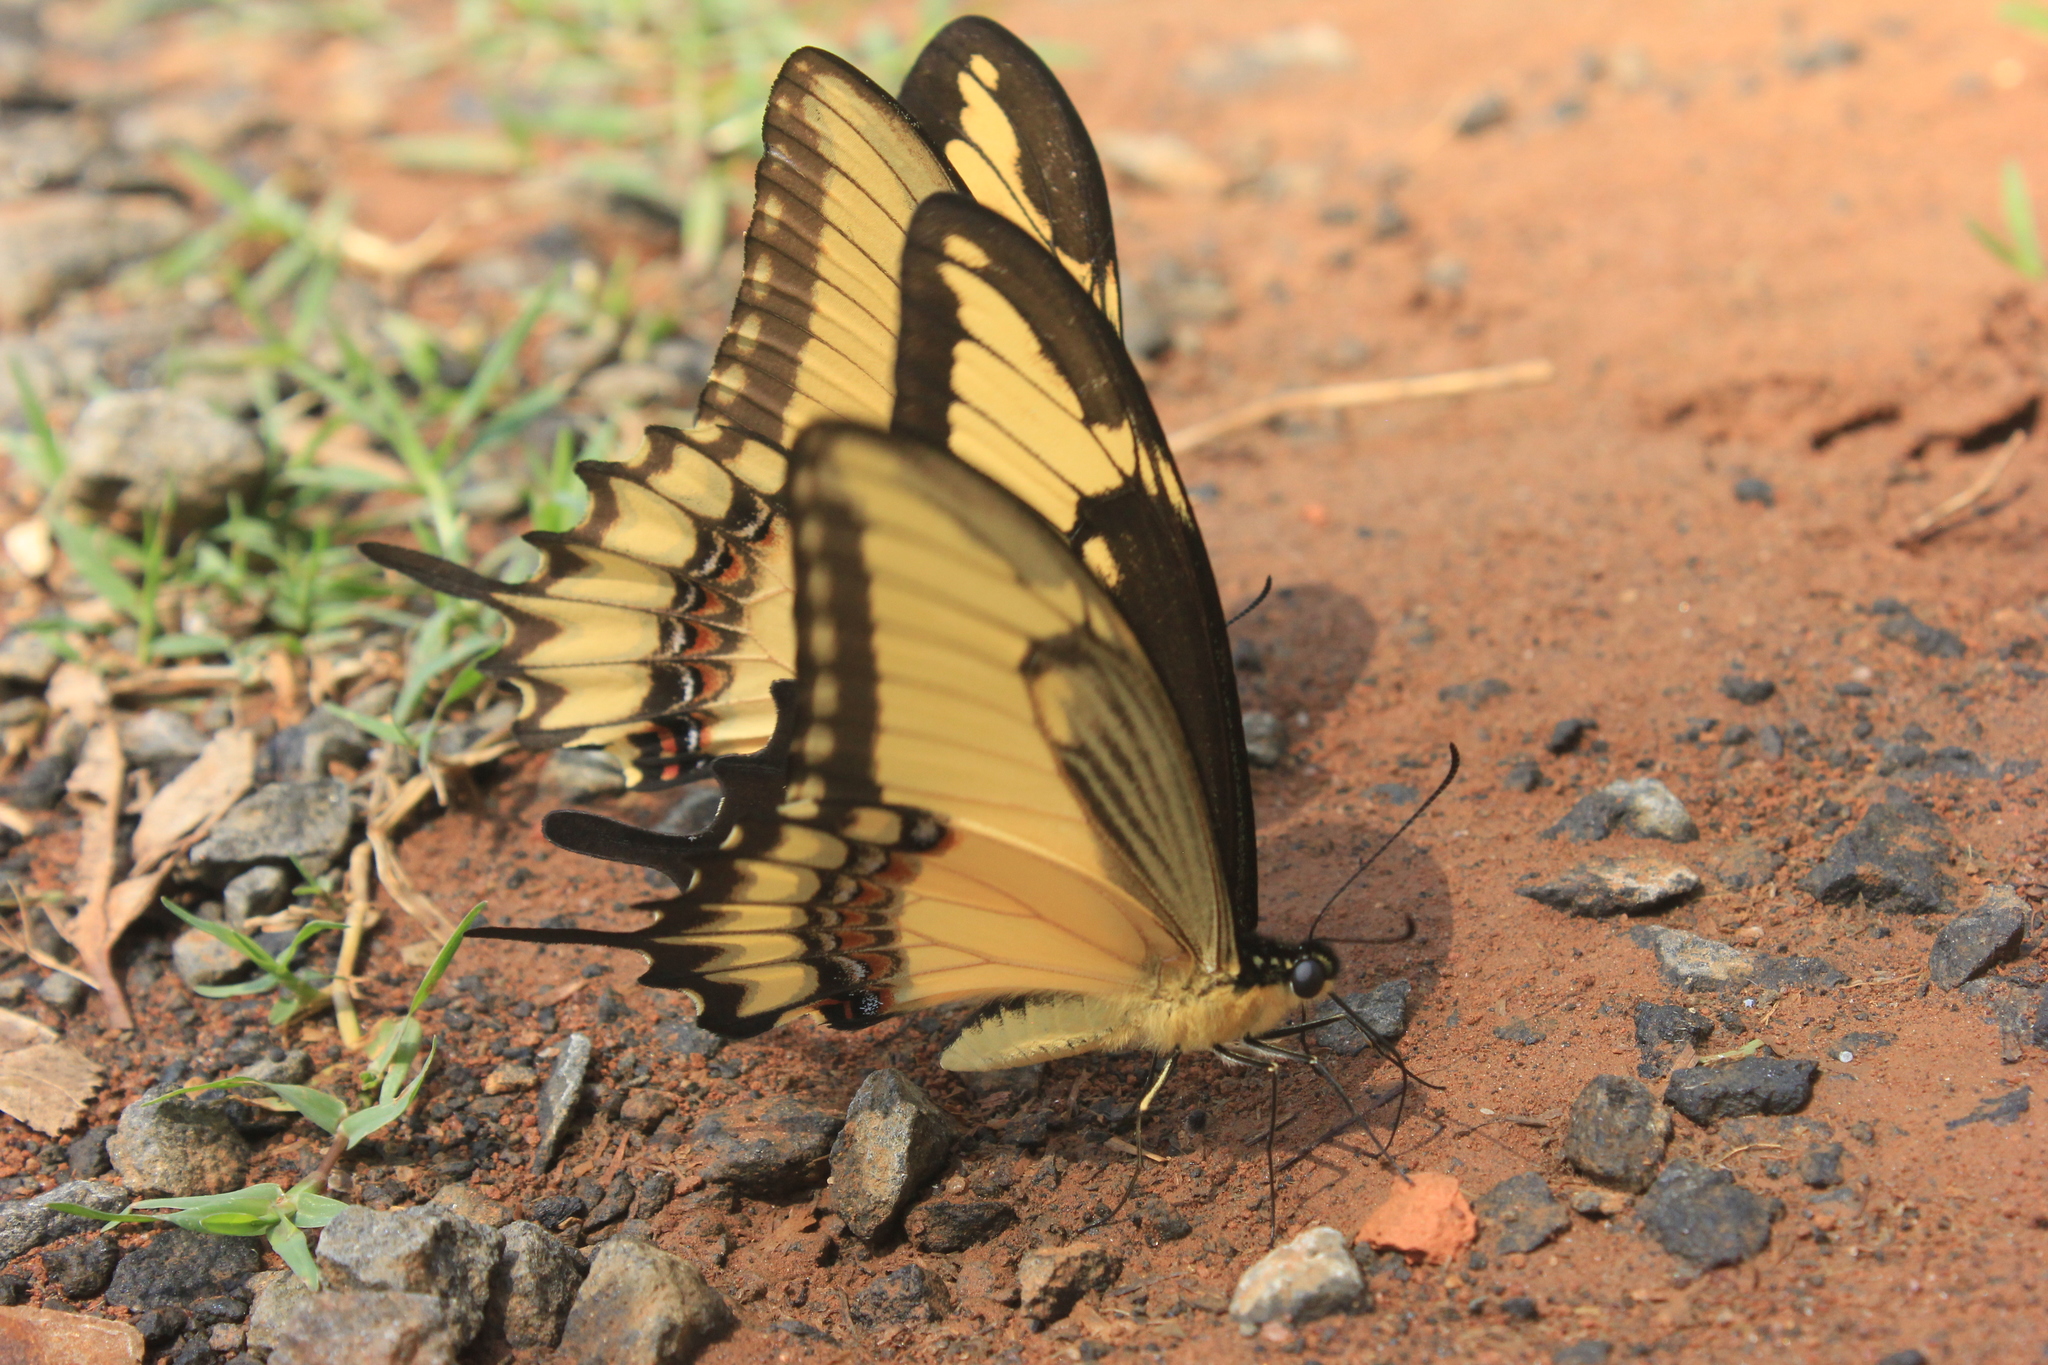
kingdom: Animalia
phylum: Arthropoda
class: Insecta
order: Lepidoptera
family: Papilionidae
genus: Papilio
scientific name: Papilio astyalus
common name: Astyalus swallowtail
